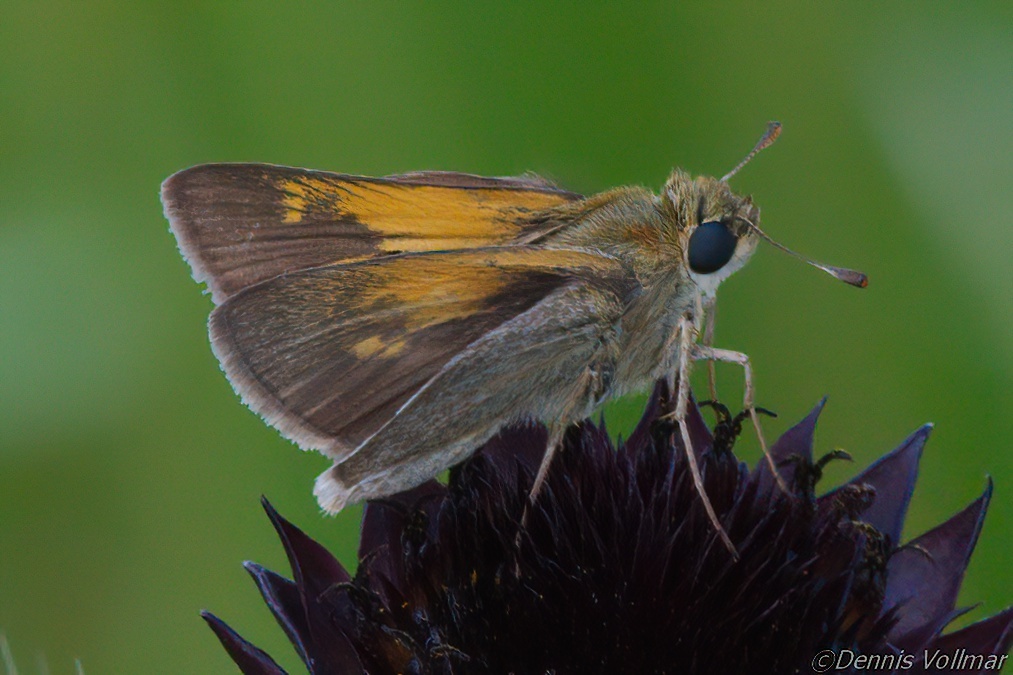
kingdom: Animalia
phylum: Arthropoda
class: Insecta
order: Lepidoptera
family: Hesperiidae
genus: Polites
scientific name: Polites themistocles
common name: Tawny-edged skipper
